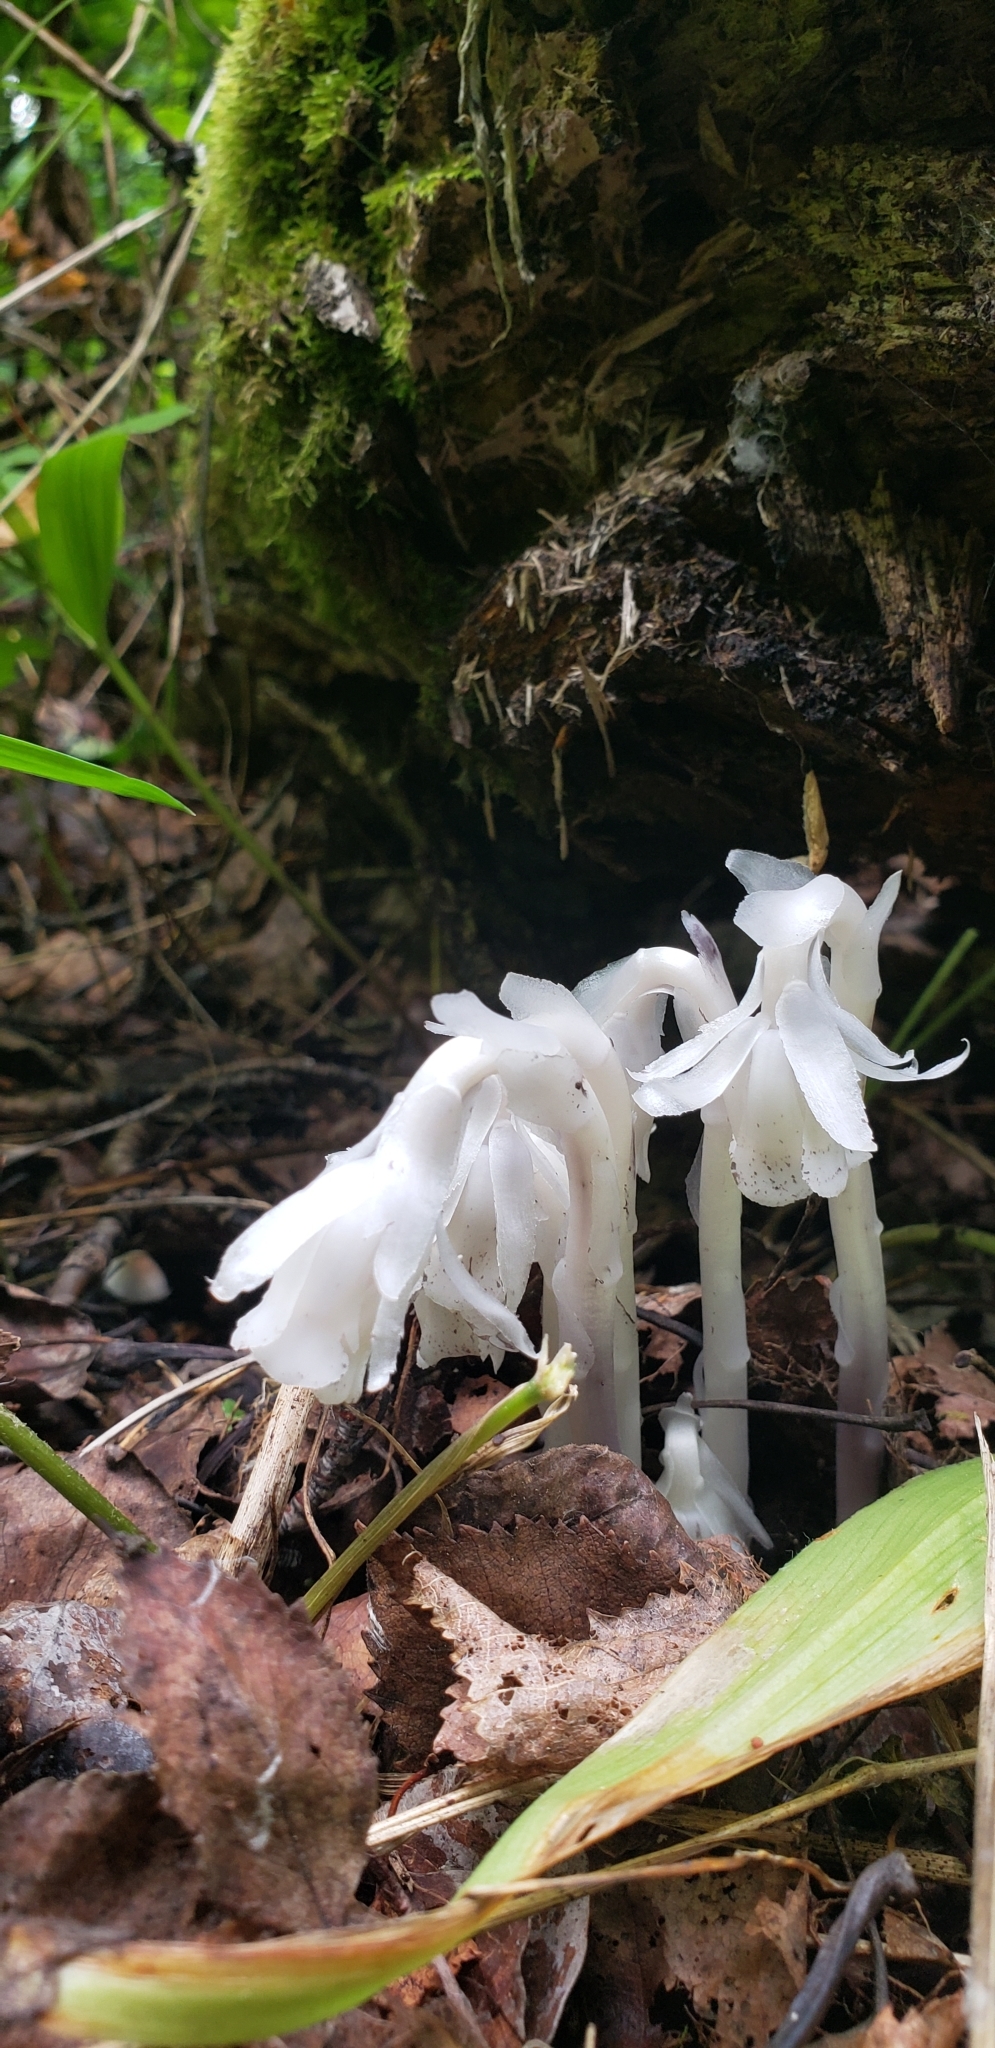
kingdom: Plantae
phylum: Tracheophyta
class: Magnoliopsida
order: Ericales
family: Ericaceae
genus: Monotropa
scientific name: Monotropa uniflora
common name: Convulsion root
